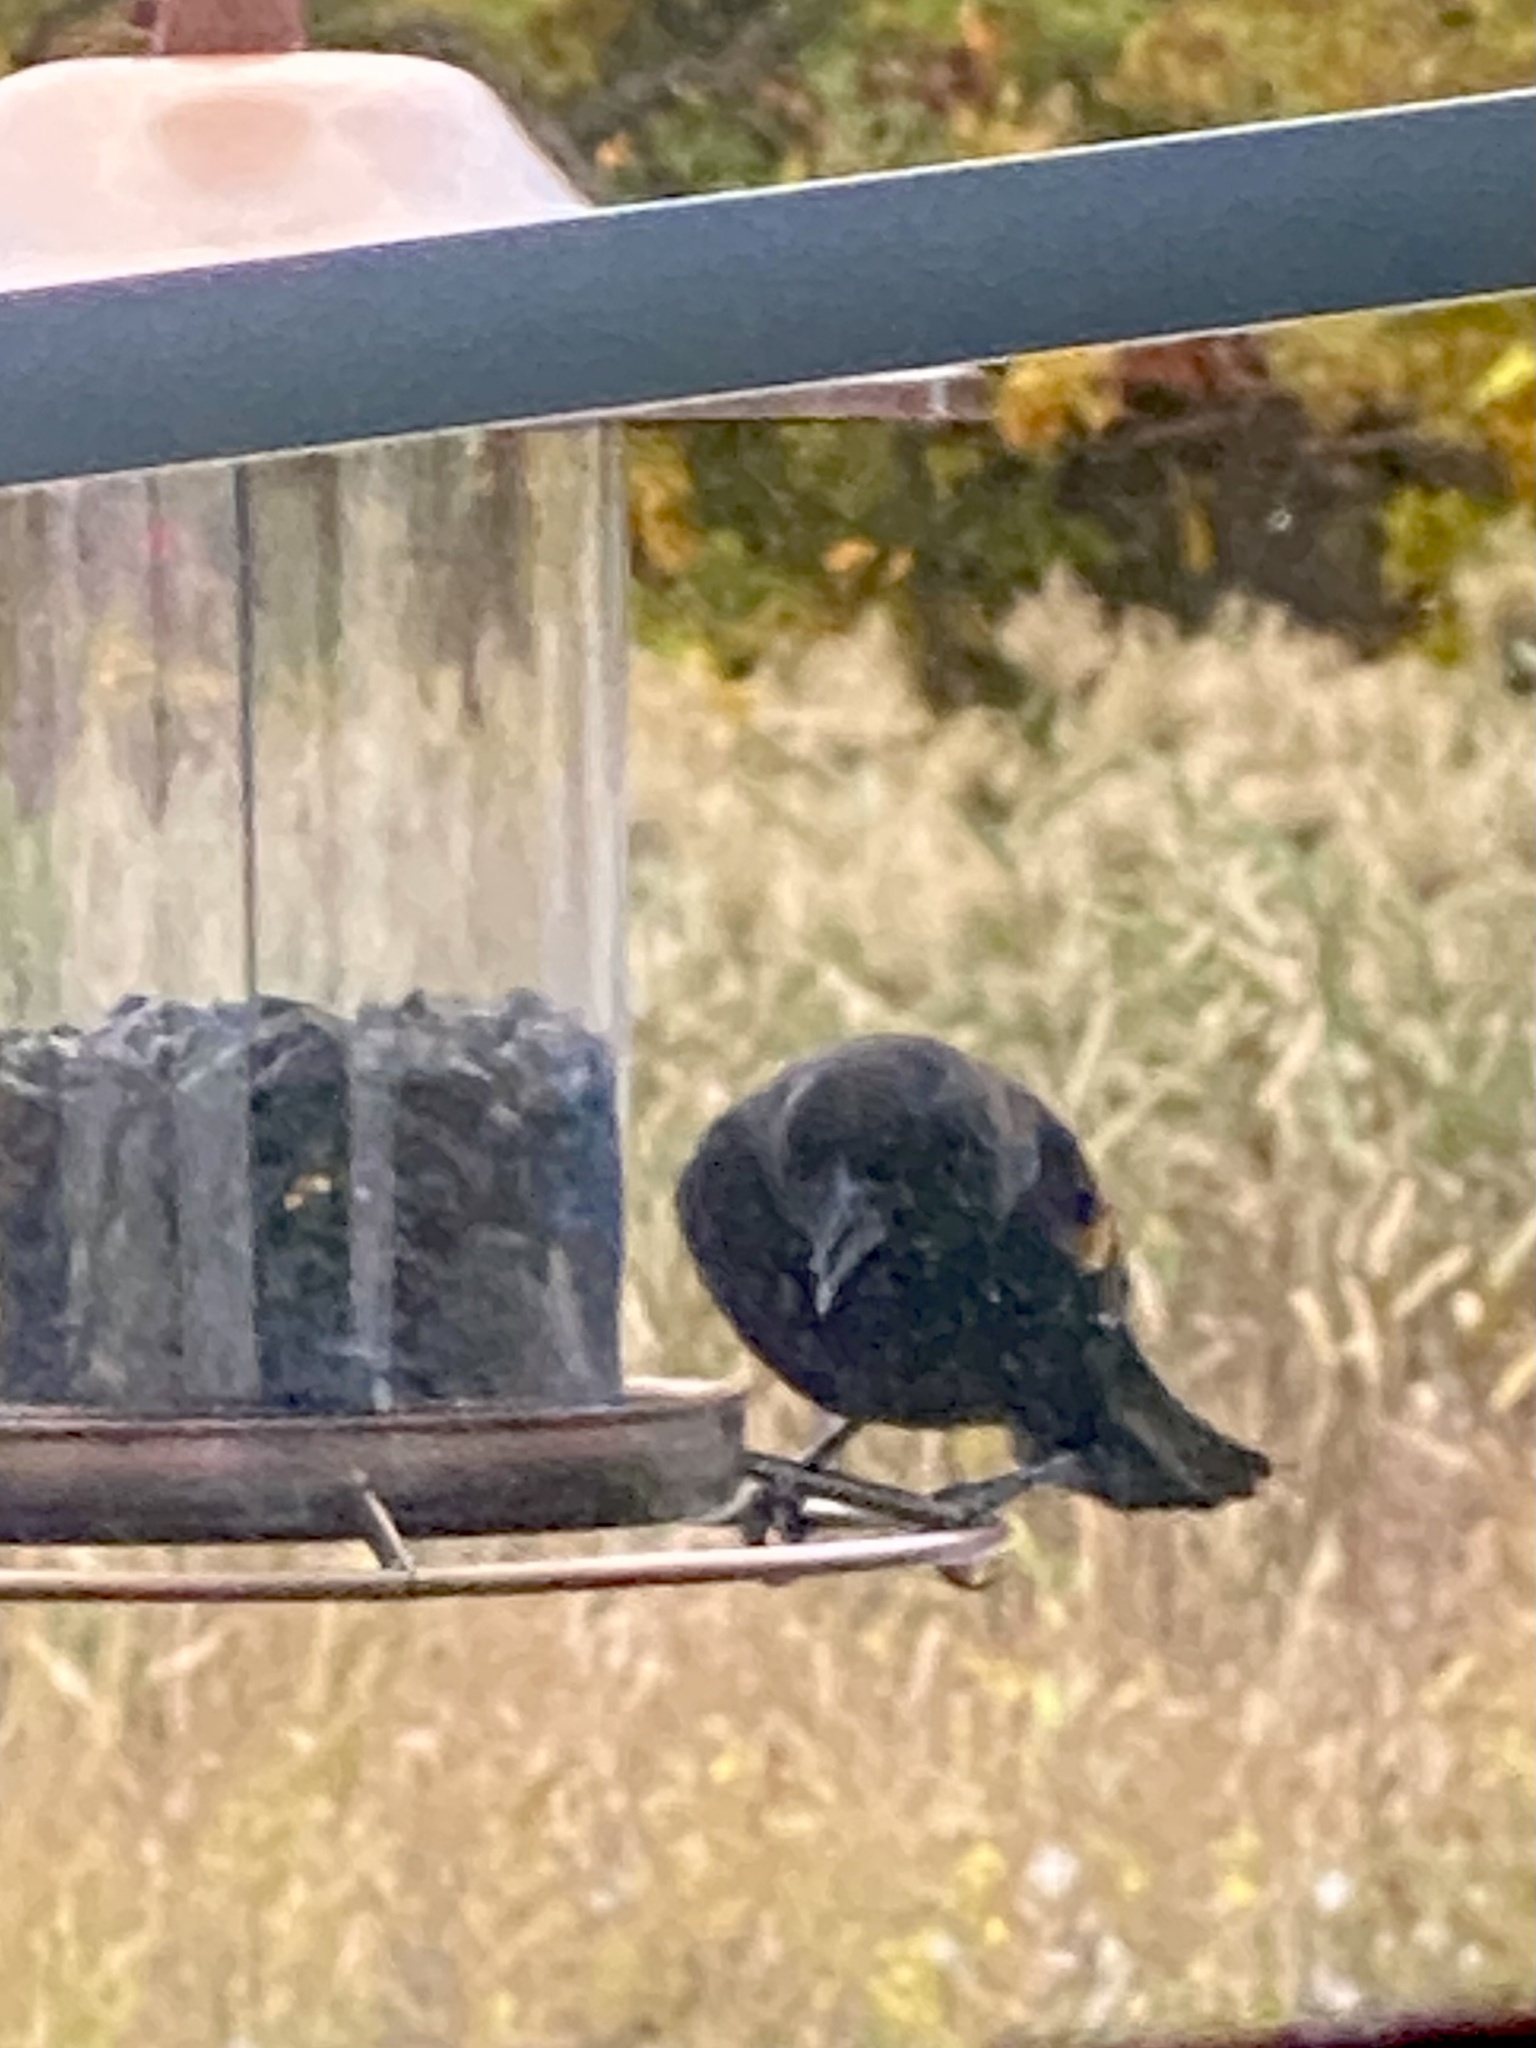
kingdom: Animalia
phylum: Chordata
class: Aves
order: Passeriformes
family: Icteridae
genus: Agelaius
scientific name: Agelaius phoeniceus
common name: Red-winged blackbird
